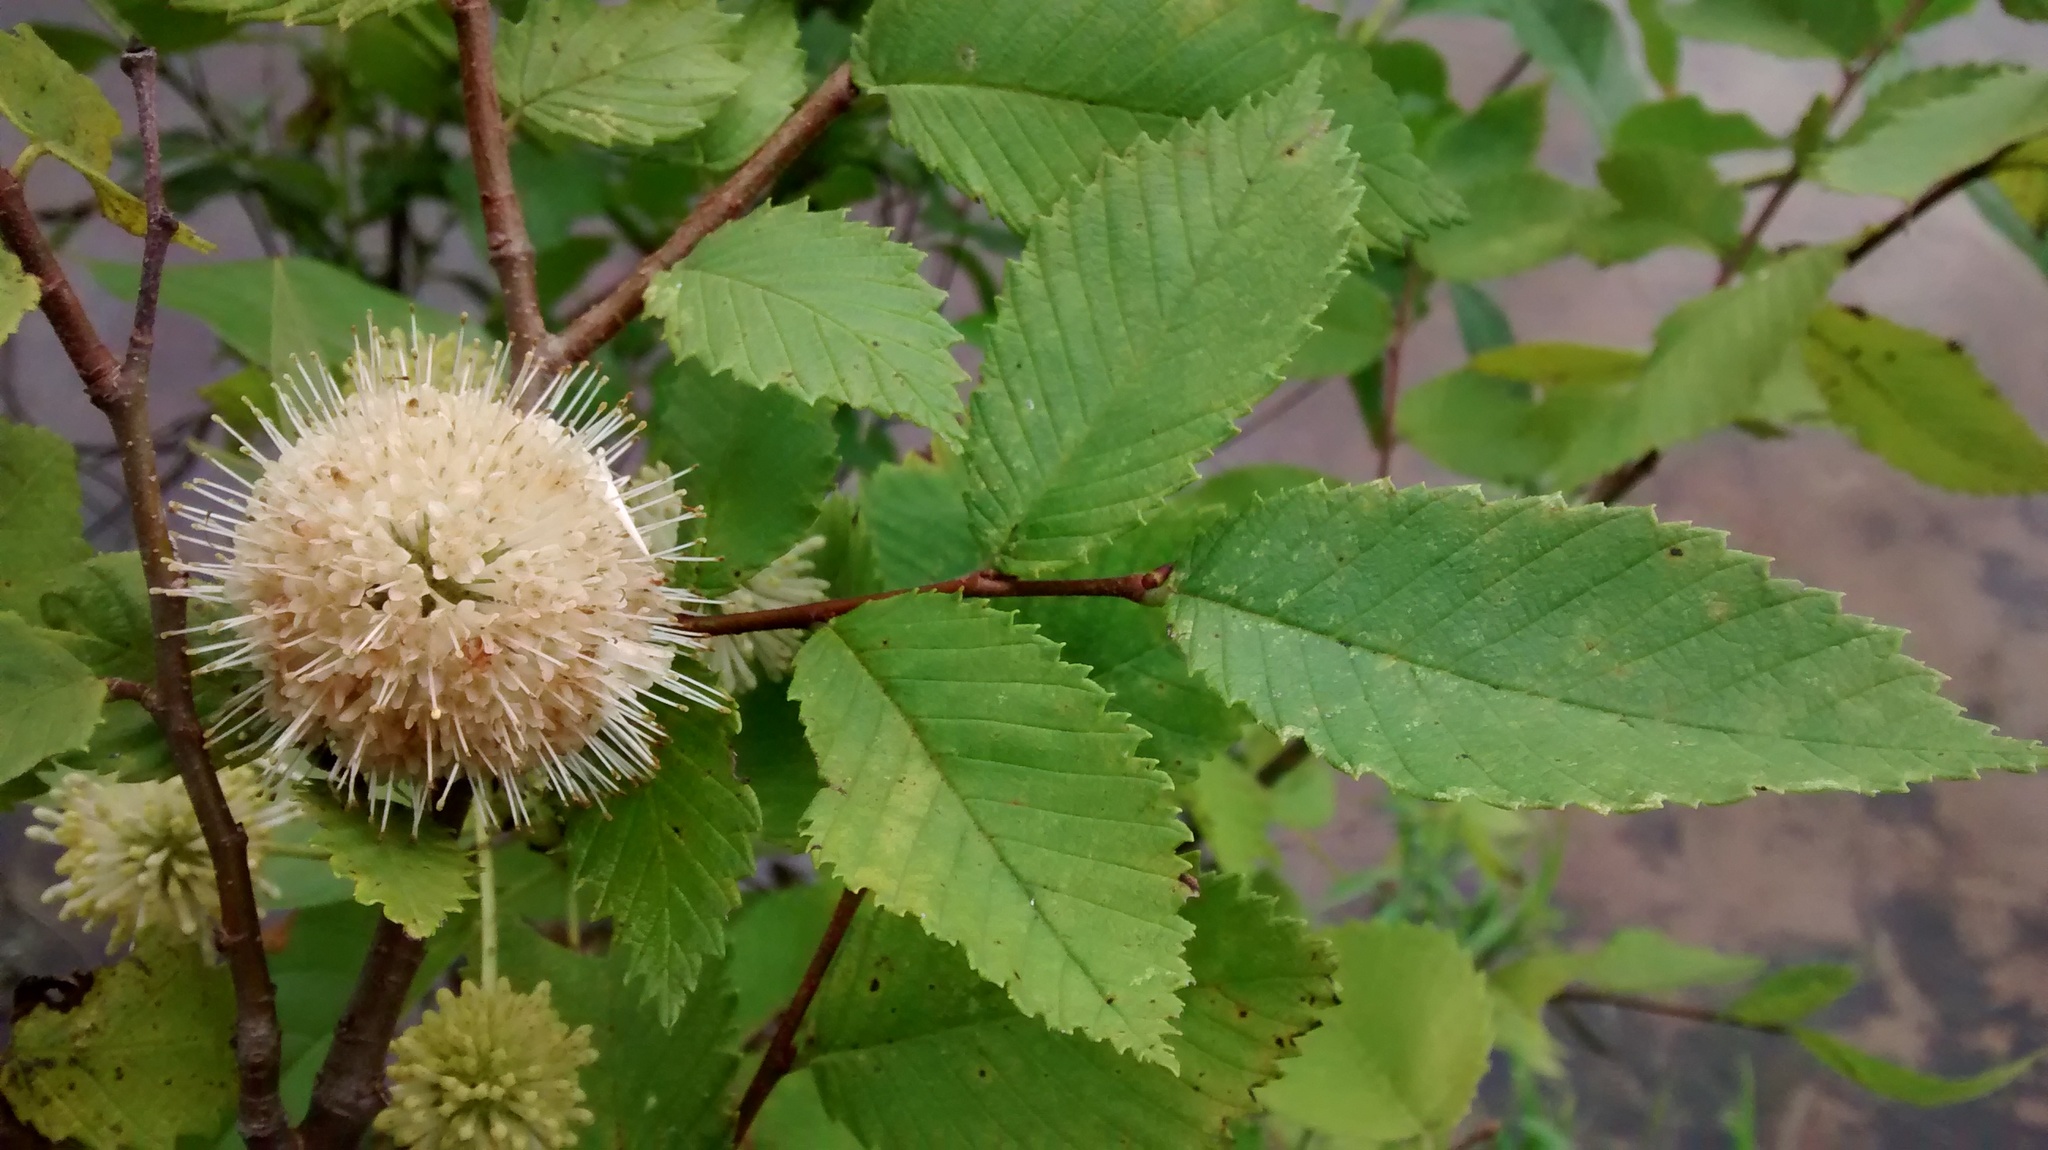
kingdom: Plantae
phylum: Tracheophyta
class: Magnoliopsida
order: Gentianales
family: Rubiaceae
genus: Cephalanthus
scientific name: Cephalanthus occidentalis
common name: Button-willow
